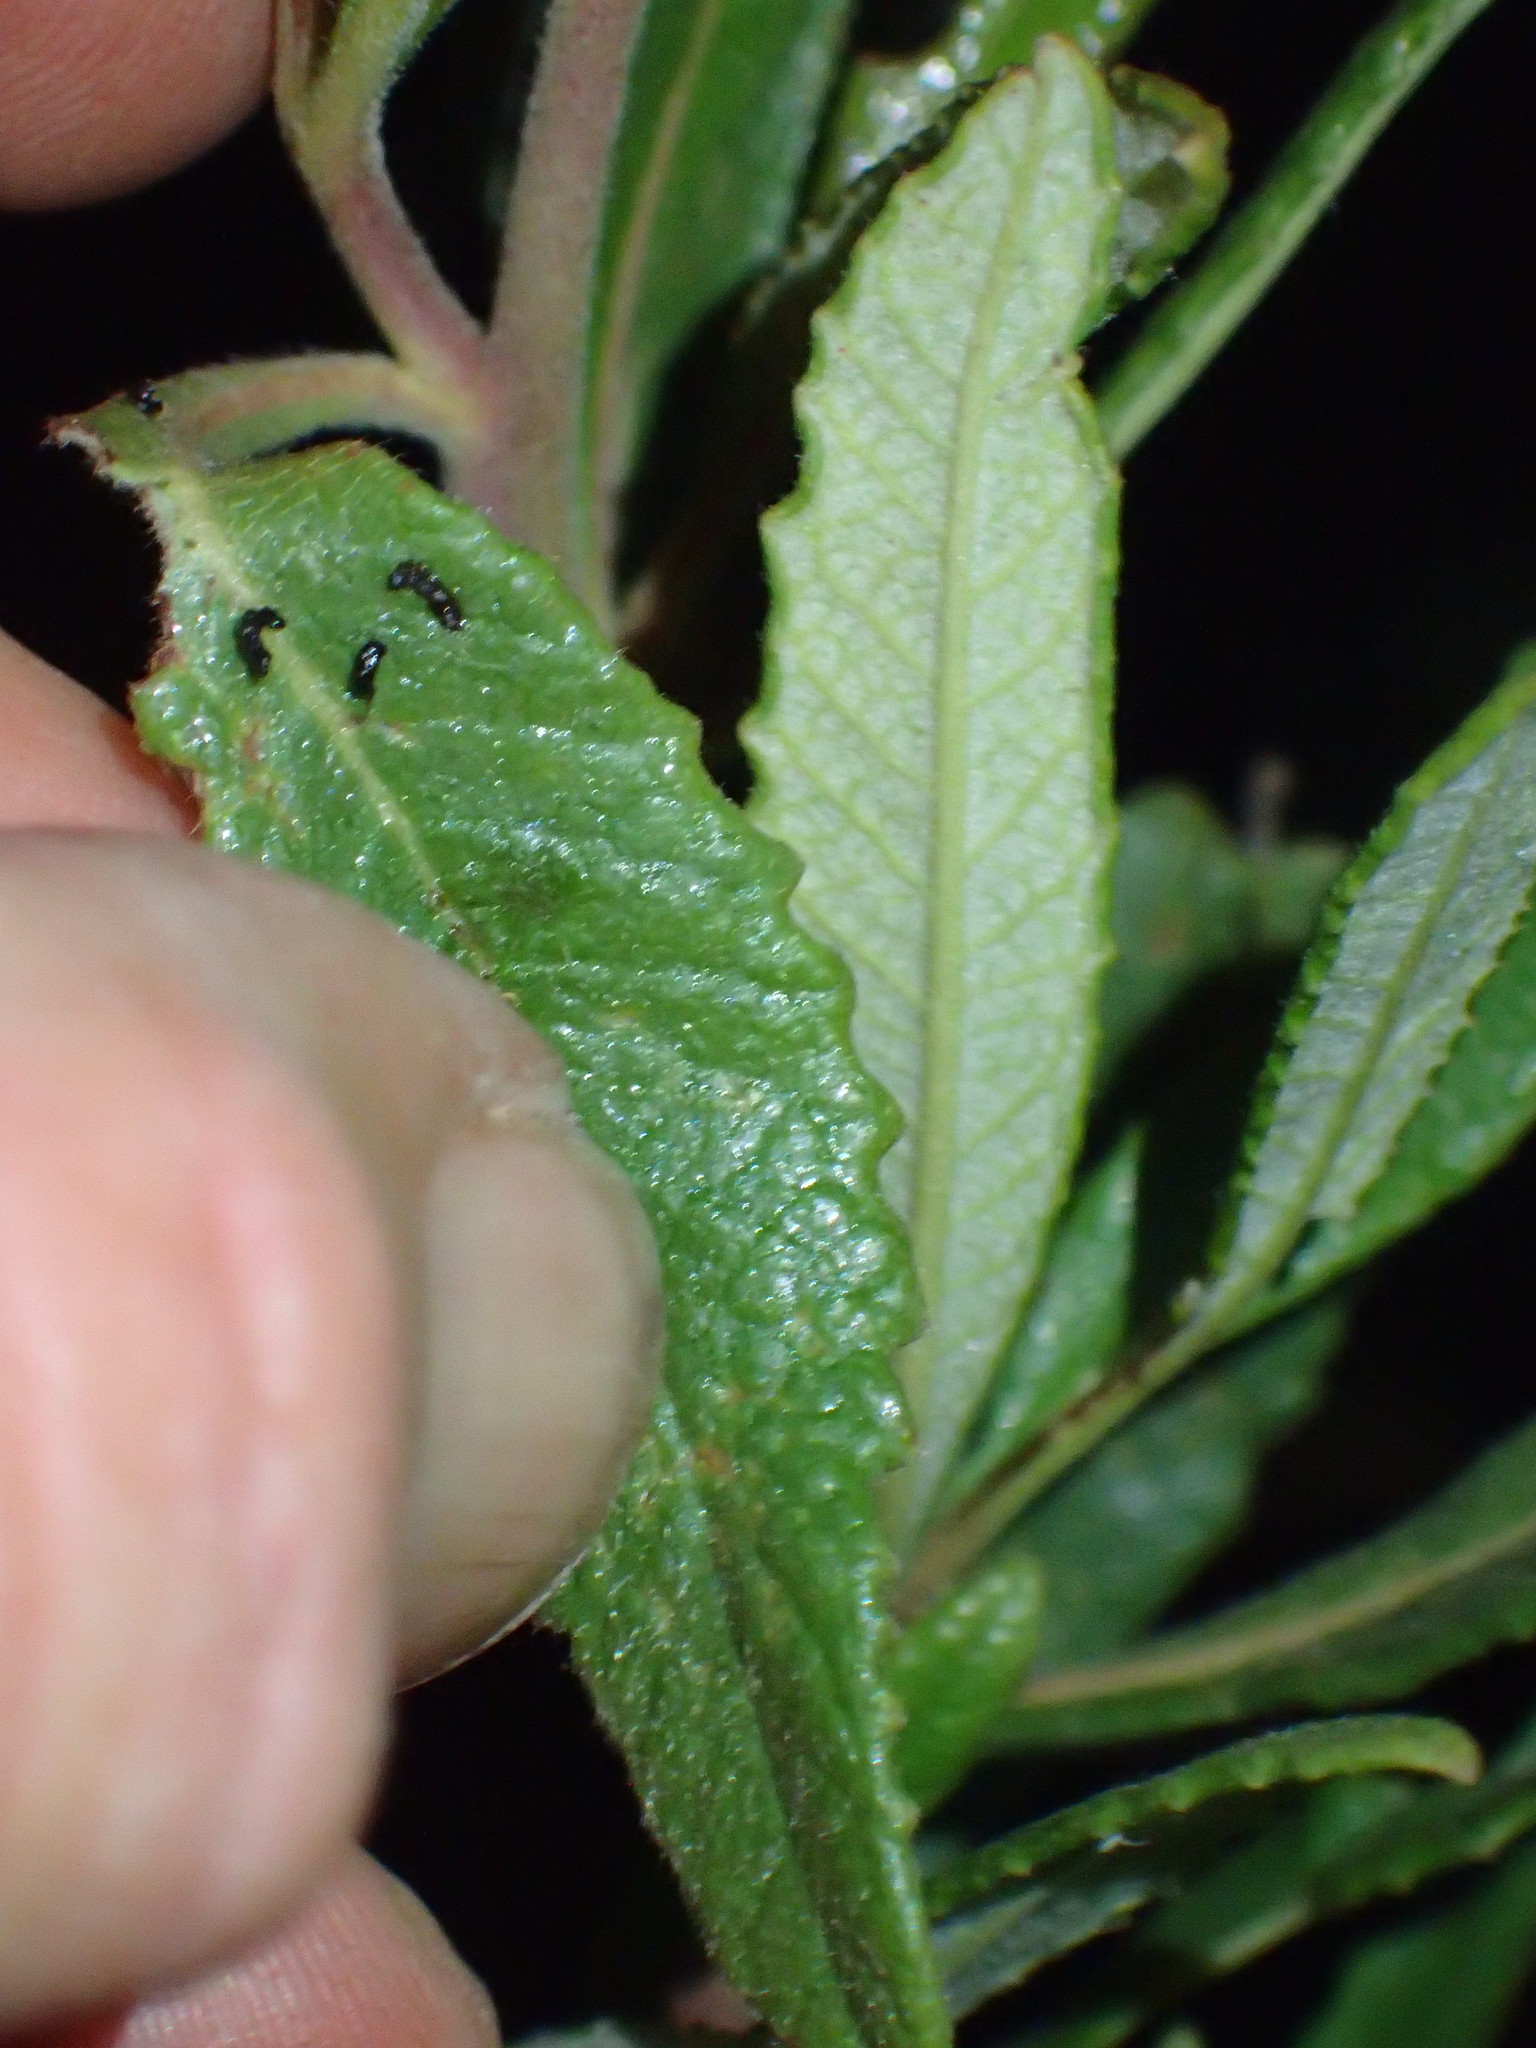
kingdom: Plantae
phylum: Tracheophyta
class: Magnoliopsida
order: Boraginales
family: Namaceae
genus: Eriodictyon
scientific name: Eriodictyon crassifolium
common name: Thick-leaf yerba-santa
